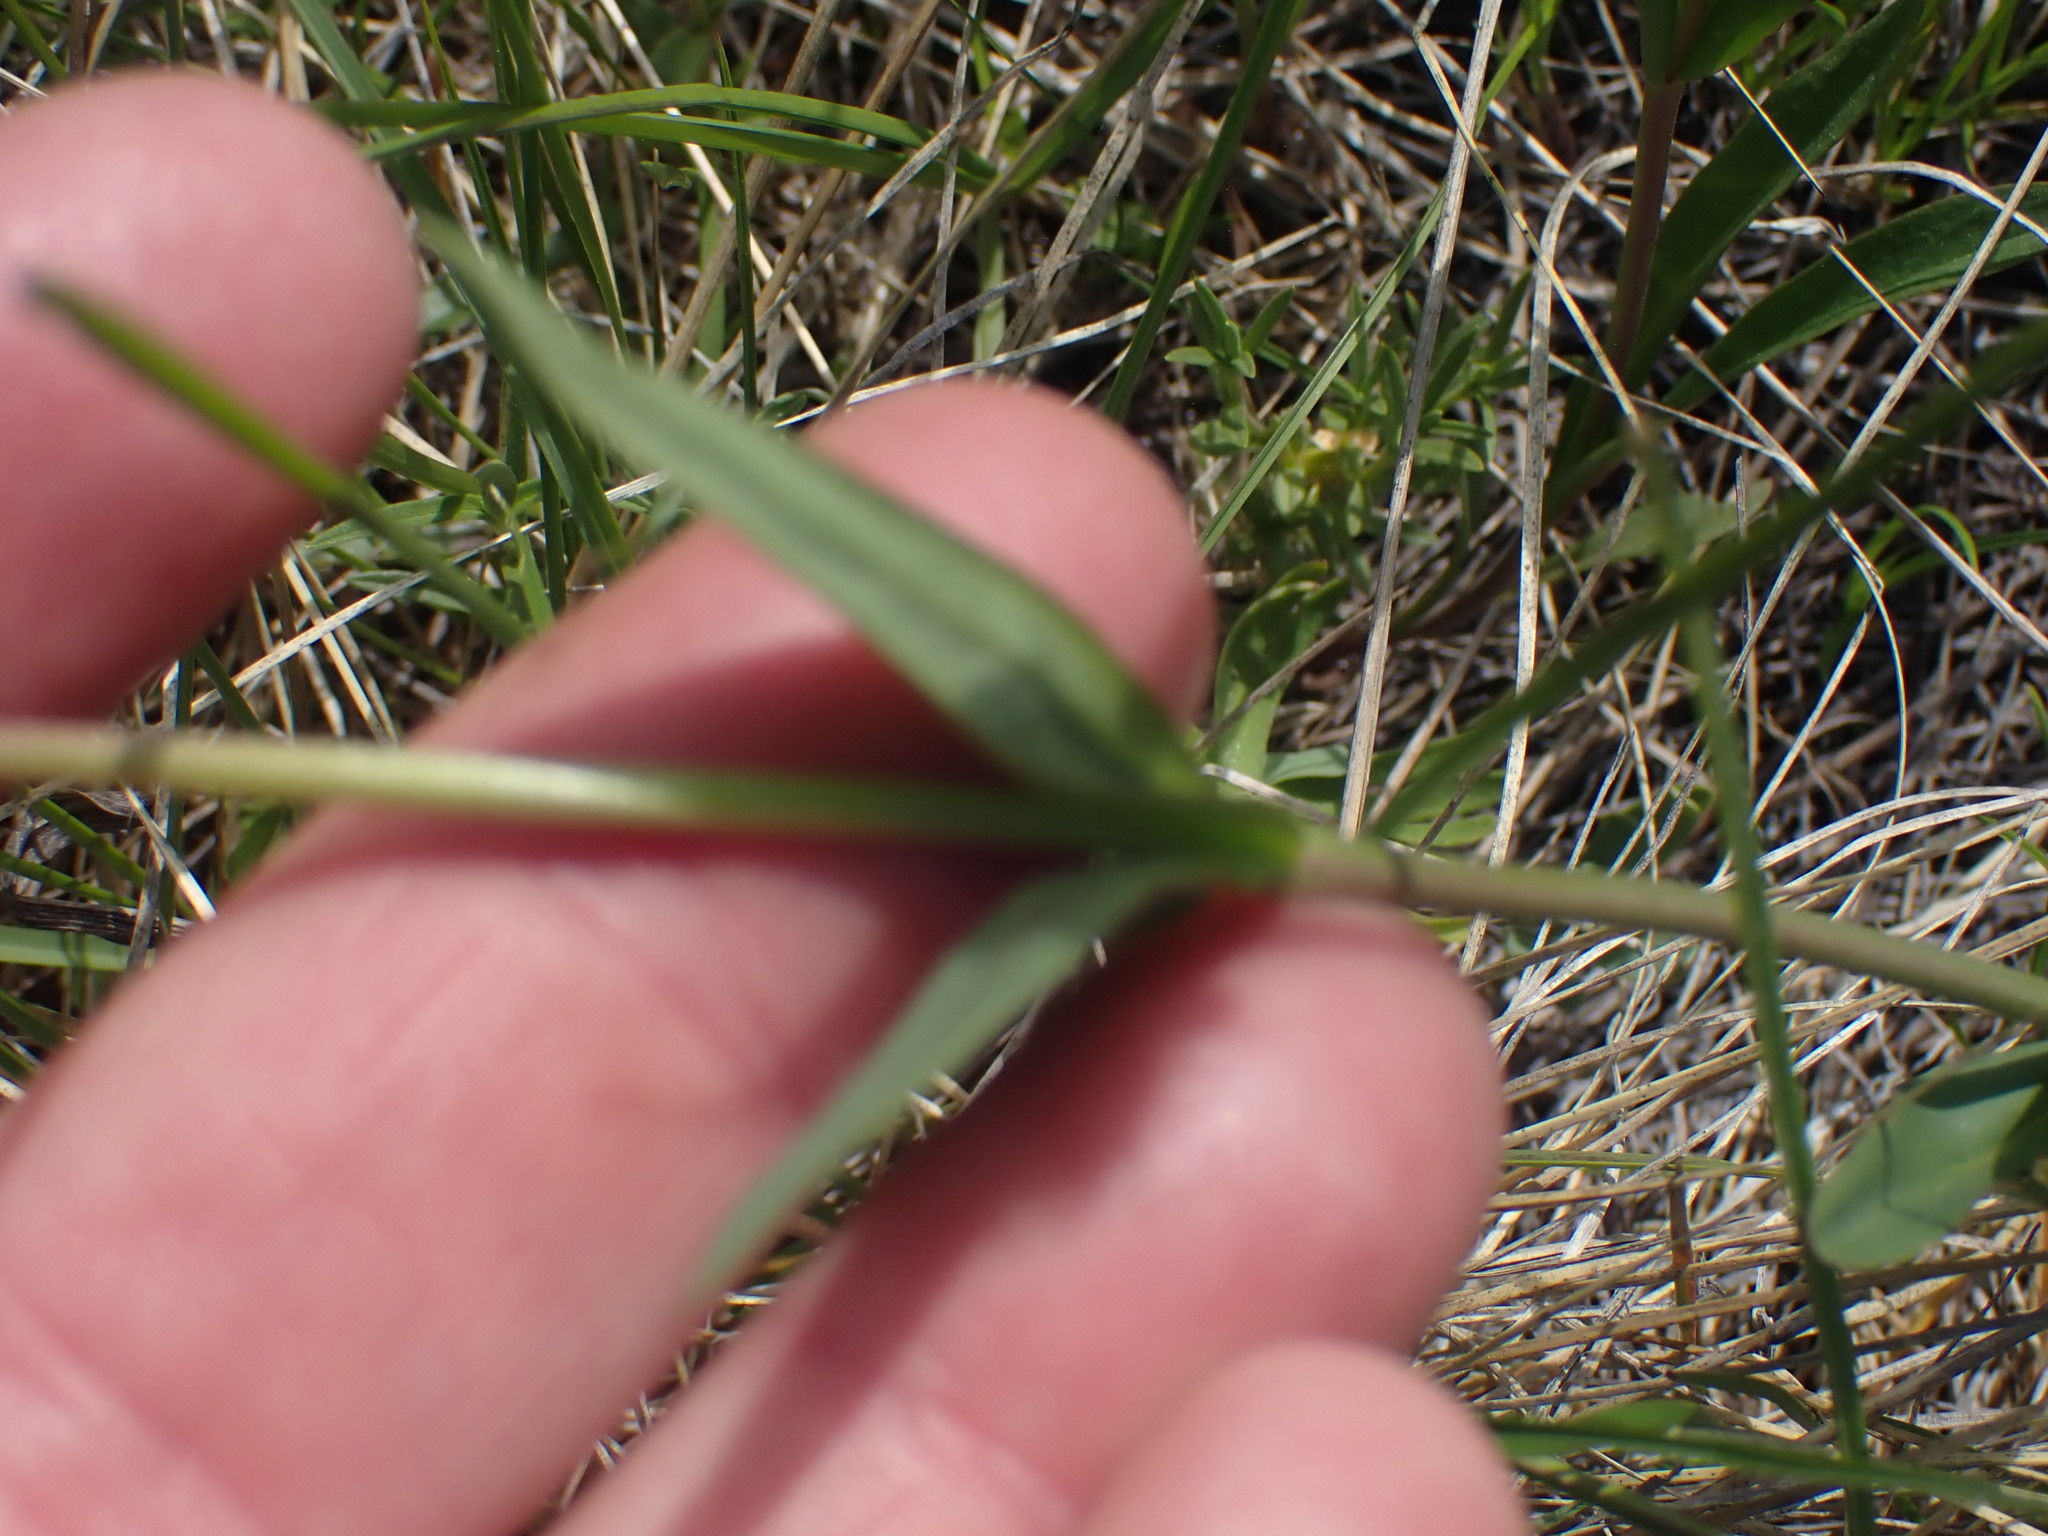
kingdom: Plantae
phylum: Tracheophyta
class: Magnoliopsida
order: Lamiales
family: Plantaginaceae
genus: Penstemon
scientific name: Penstemon procerus
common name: Small-flower penstemon
